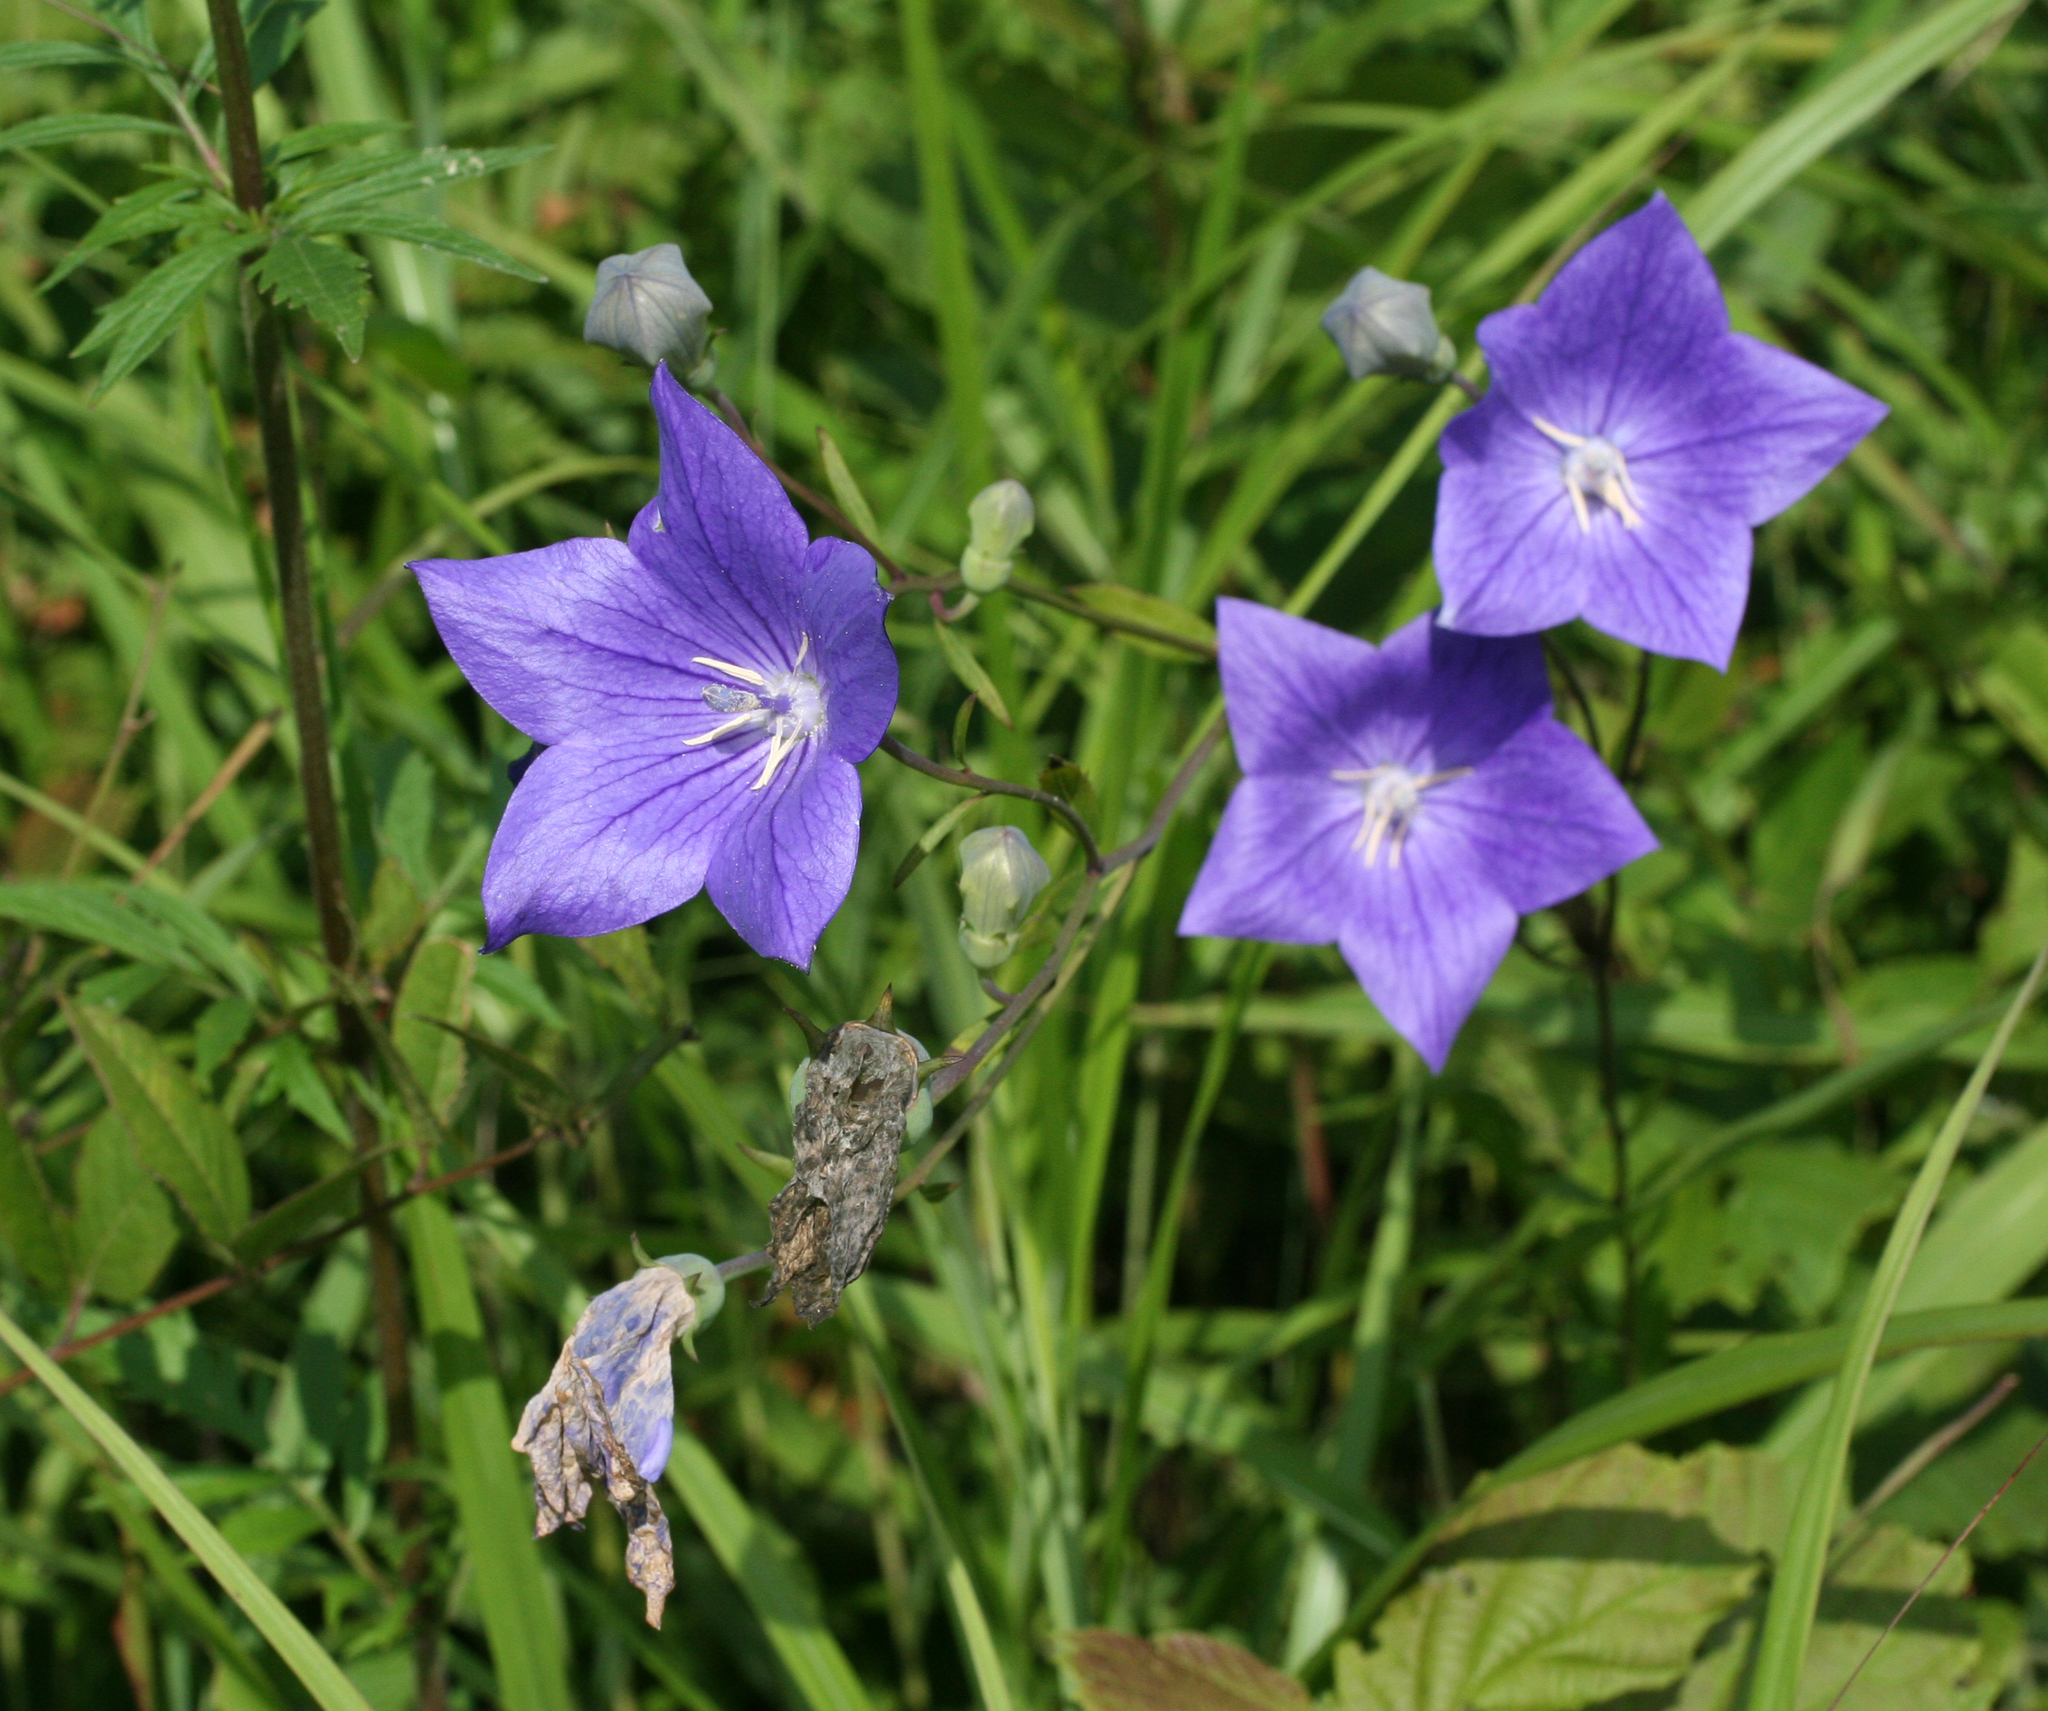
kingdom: Plantae
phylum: Tracheophyta
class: Magnoliopsida
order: Asterales
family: Campanulaceae
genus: Platycodon
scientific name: Platycodon grandiflorus
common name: Balloon-flower
